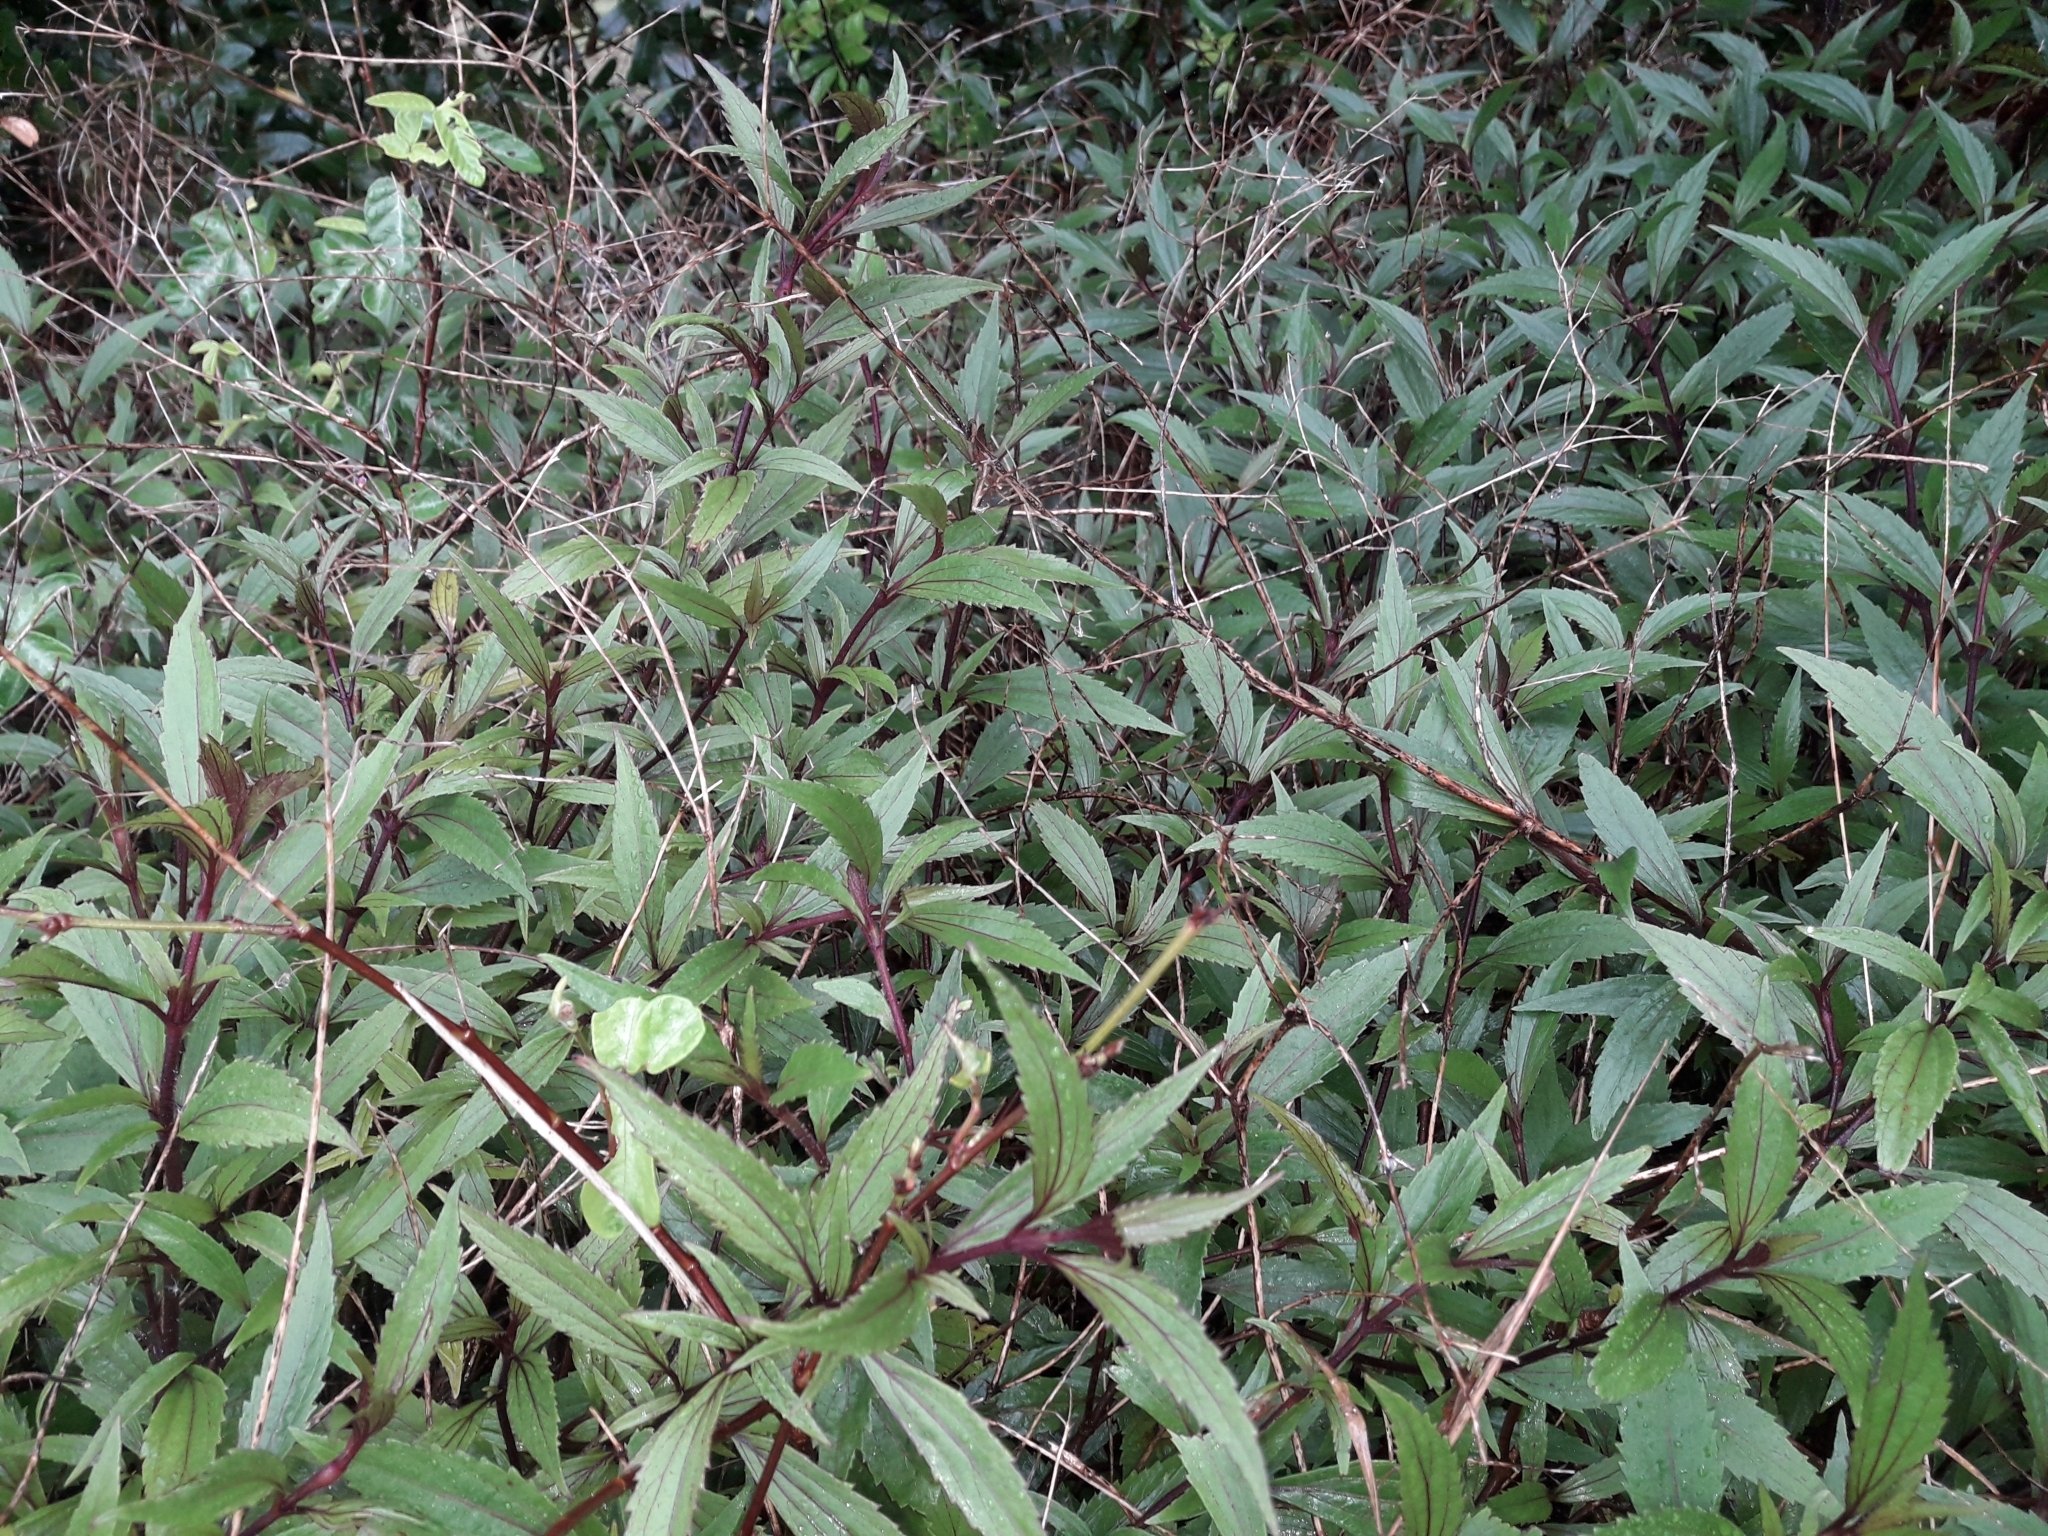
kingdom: Plantae
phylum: Tracheophyta
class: Magnoliopsida
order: Asterales
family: Asteraceae
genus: Ageratina
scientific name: Ageratina riparia
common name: Creeping croftonweed
